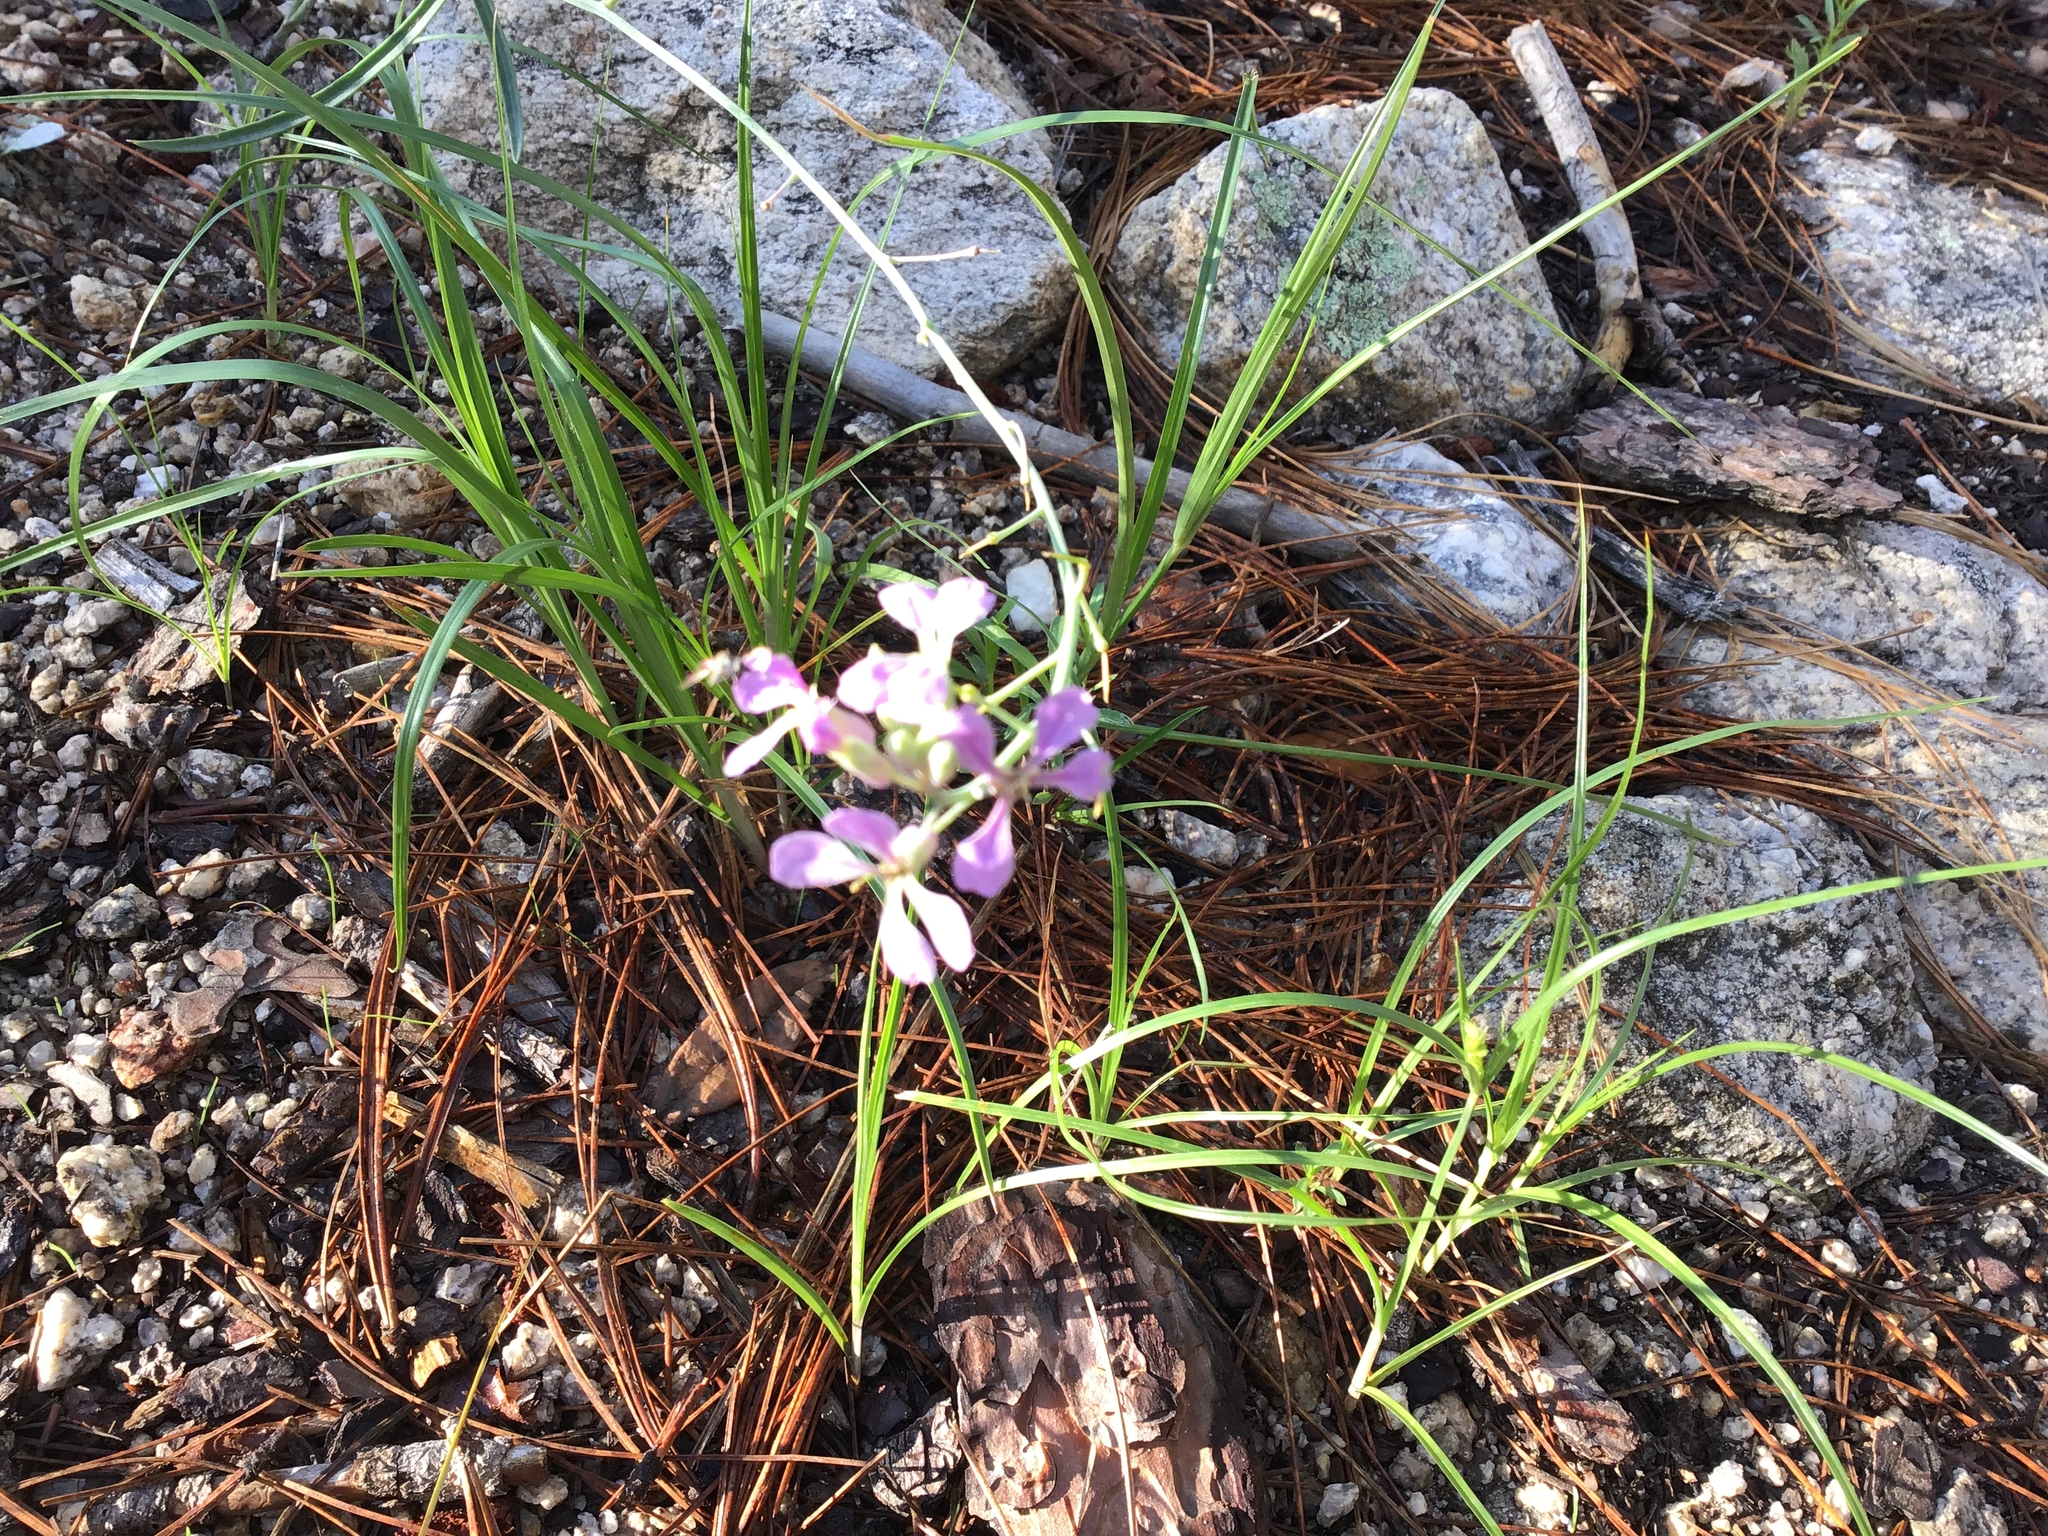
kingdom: Plantae
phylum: Tracheophyta
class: Magnoliopsida
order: Brassicales
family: Brassicaceae
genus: Hesperidanthus
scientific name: Hesperidanthus linearifolius
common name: Slim-leaf plains mustard
